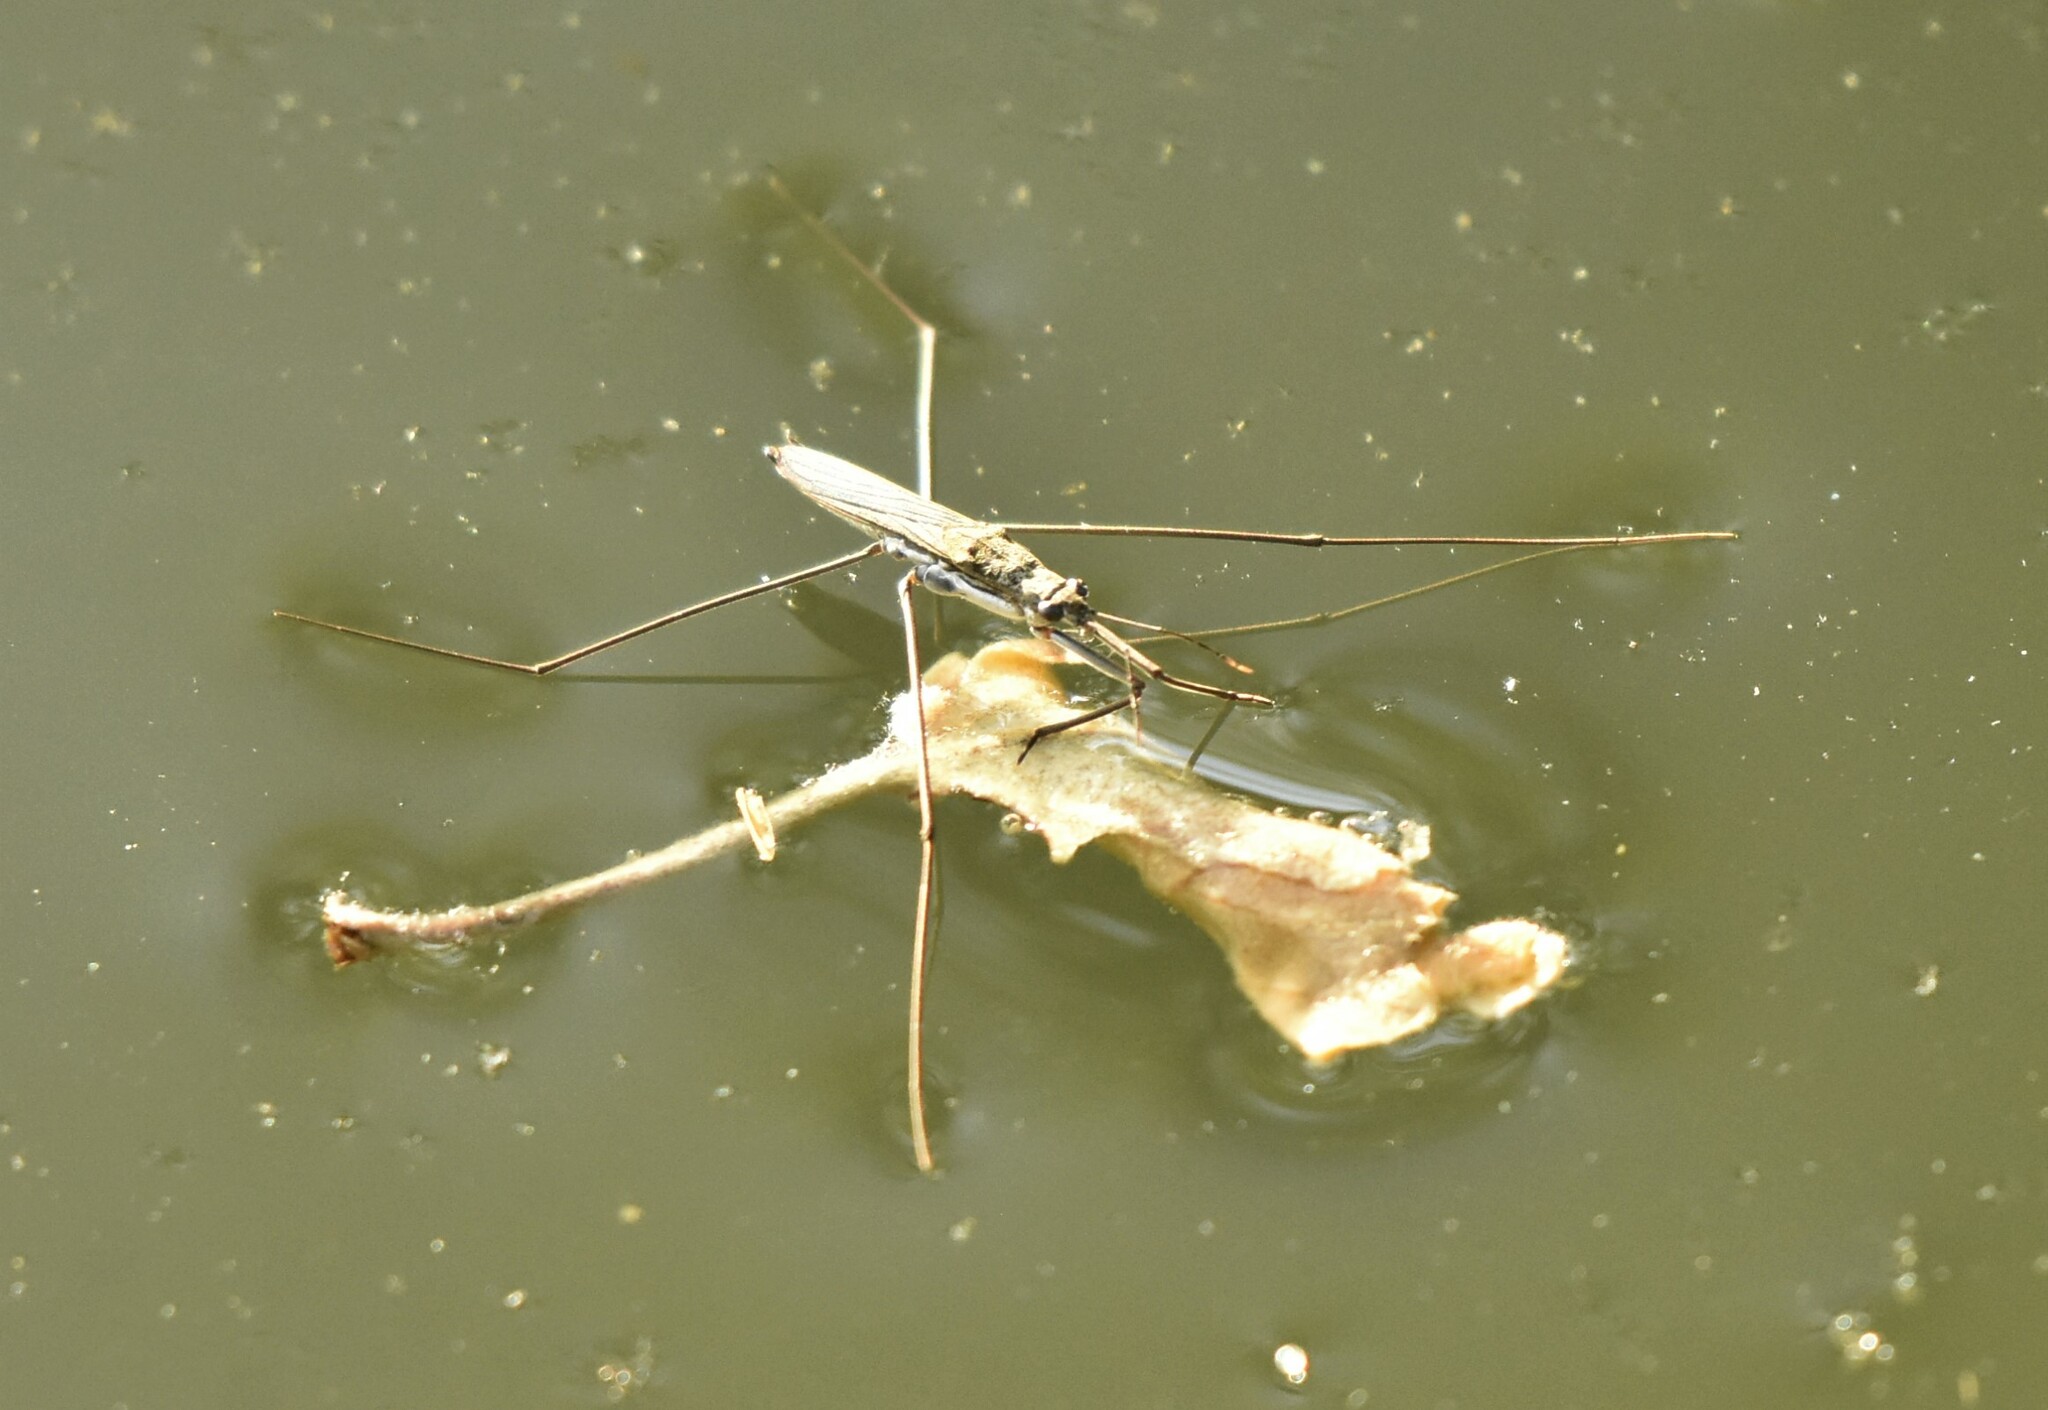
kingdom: Animalia
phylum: Arthropoda
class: Insecta
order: Hemiptera
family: Gerridae
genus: Aquarius
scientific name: Aquarius paludum
